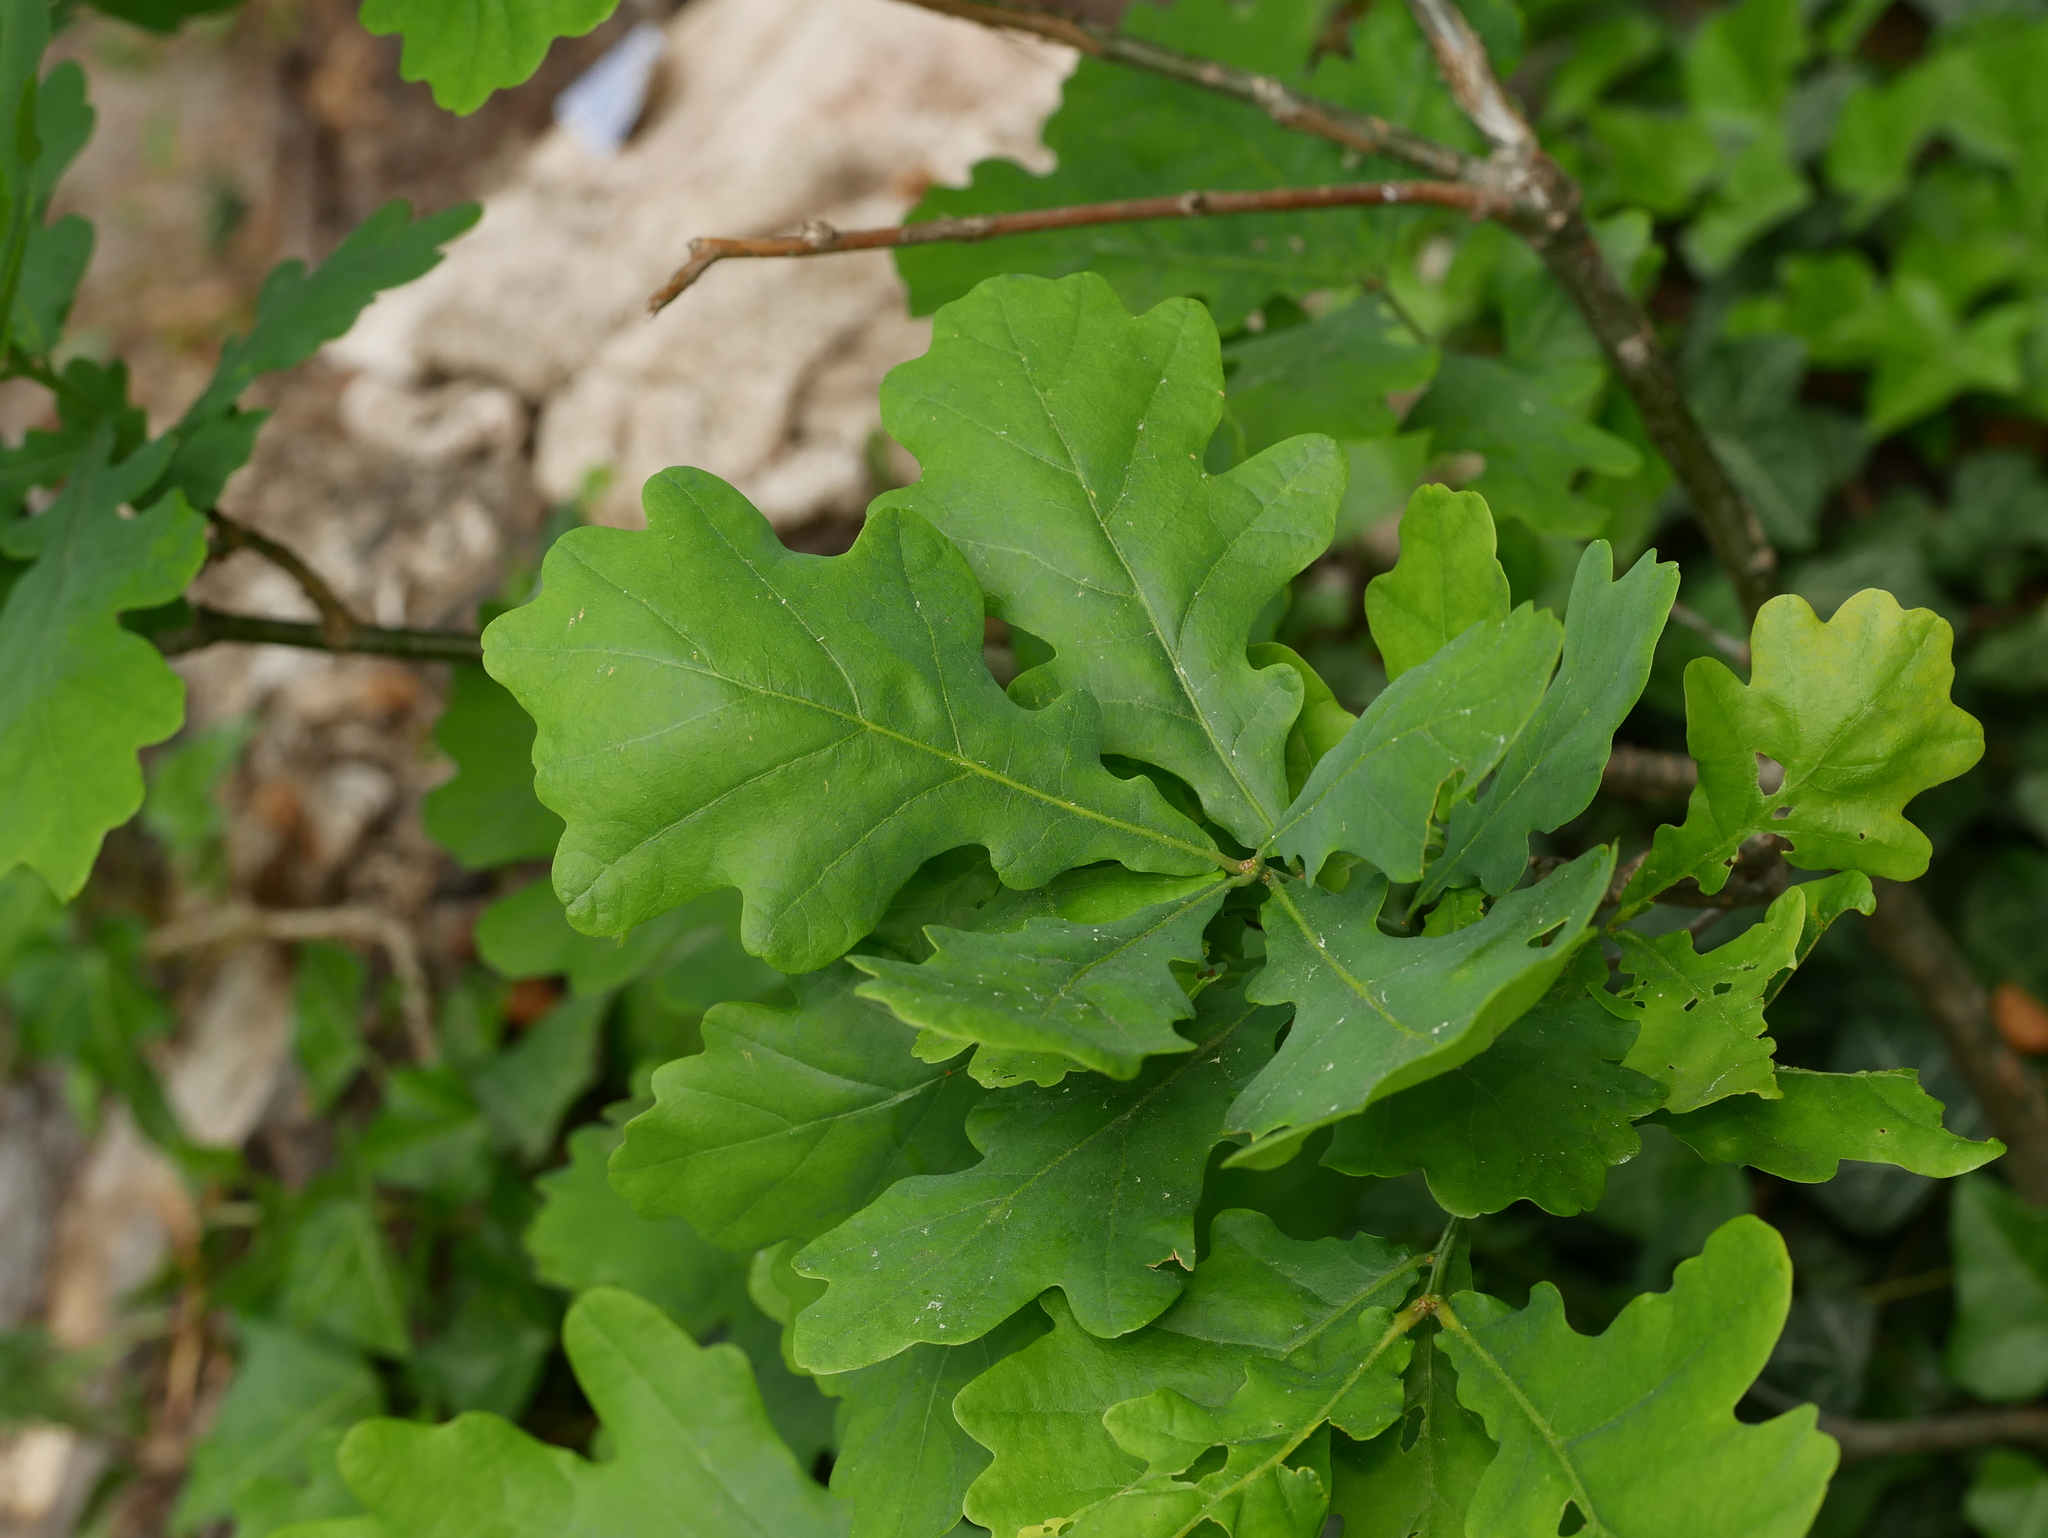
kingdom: Plantae
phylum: Tracheophyta
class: Magnoliopsida
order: Fagales
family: Fagaceae
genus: Quercus
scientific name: Quercus robur
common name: Pedunculate oak
